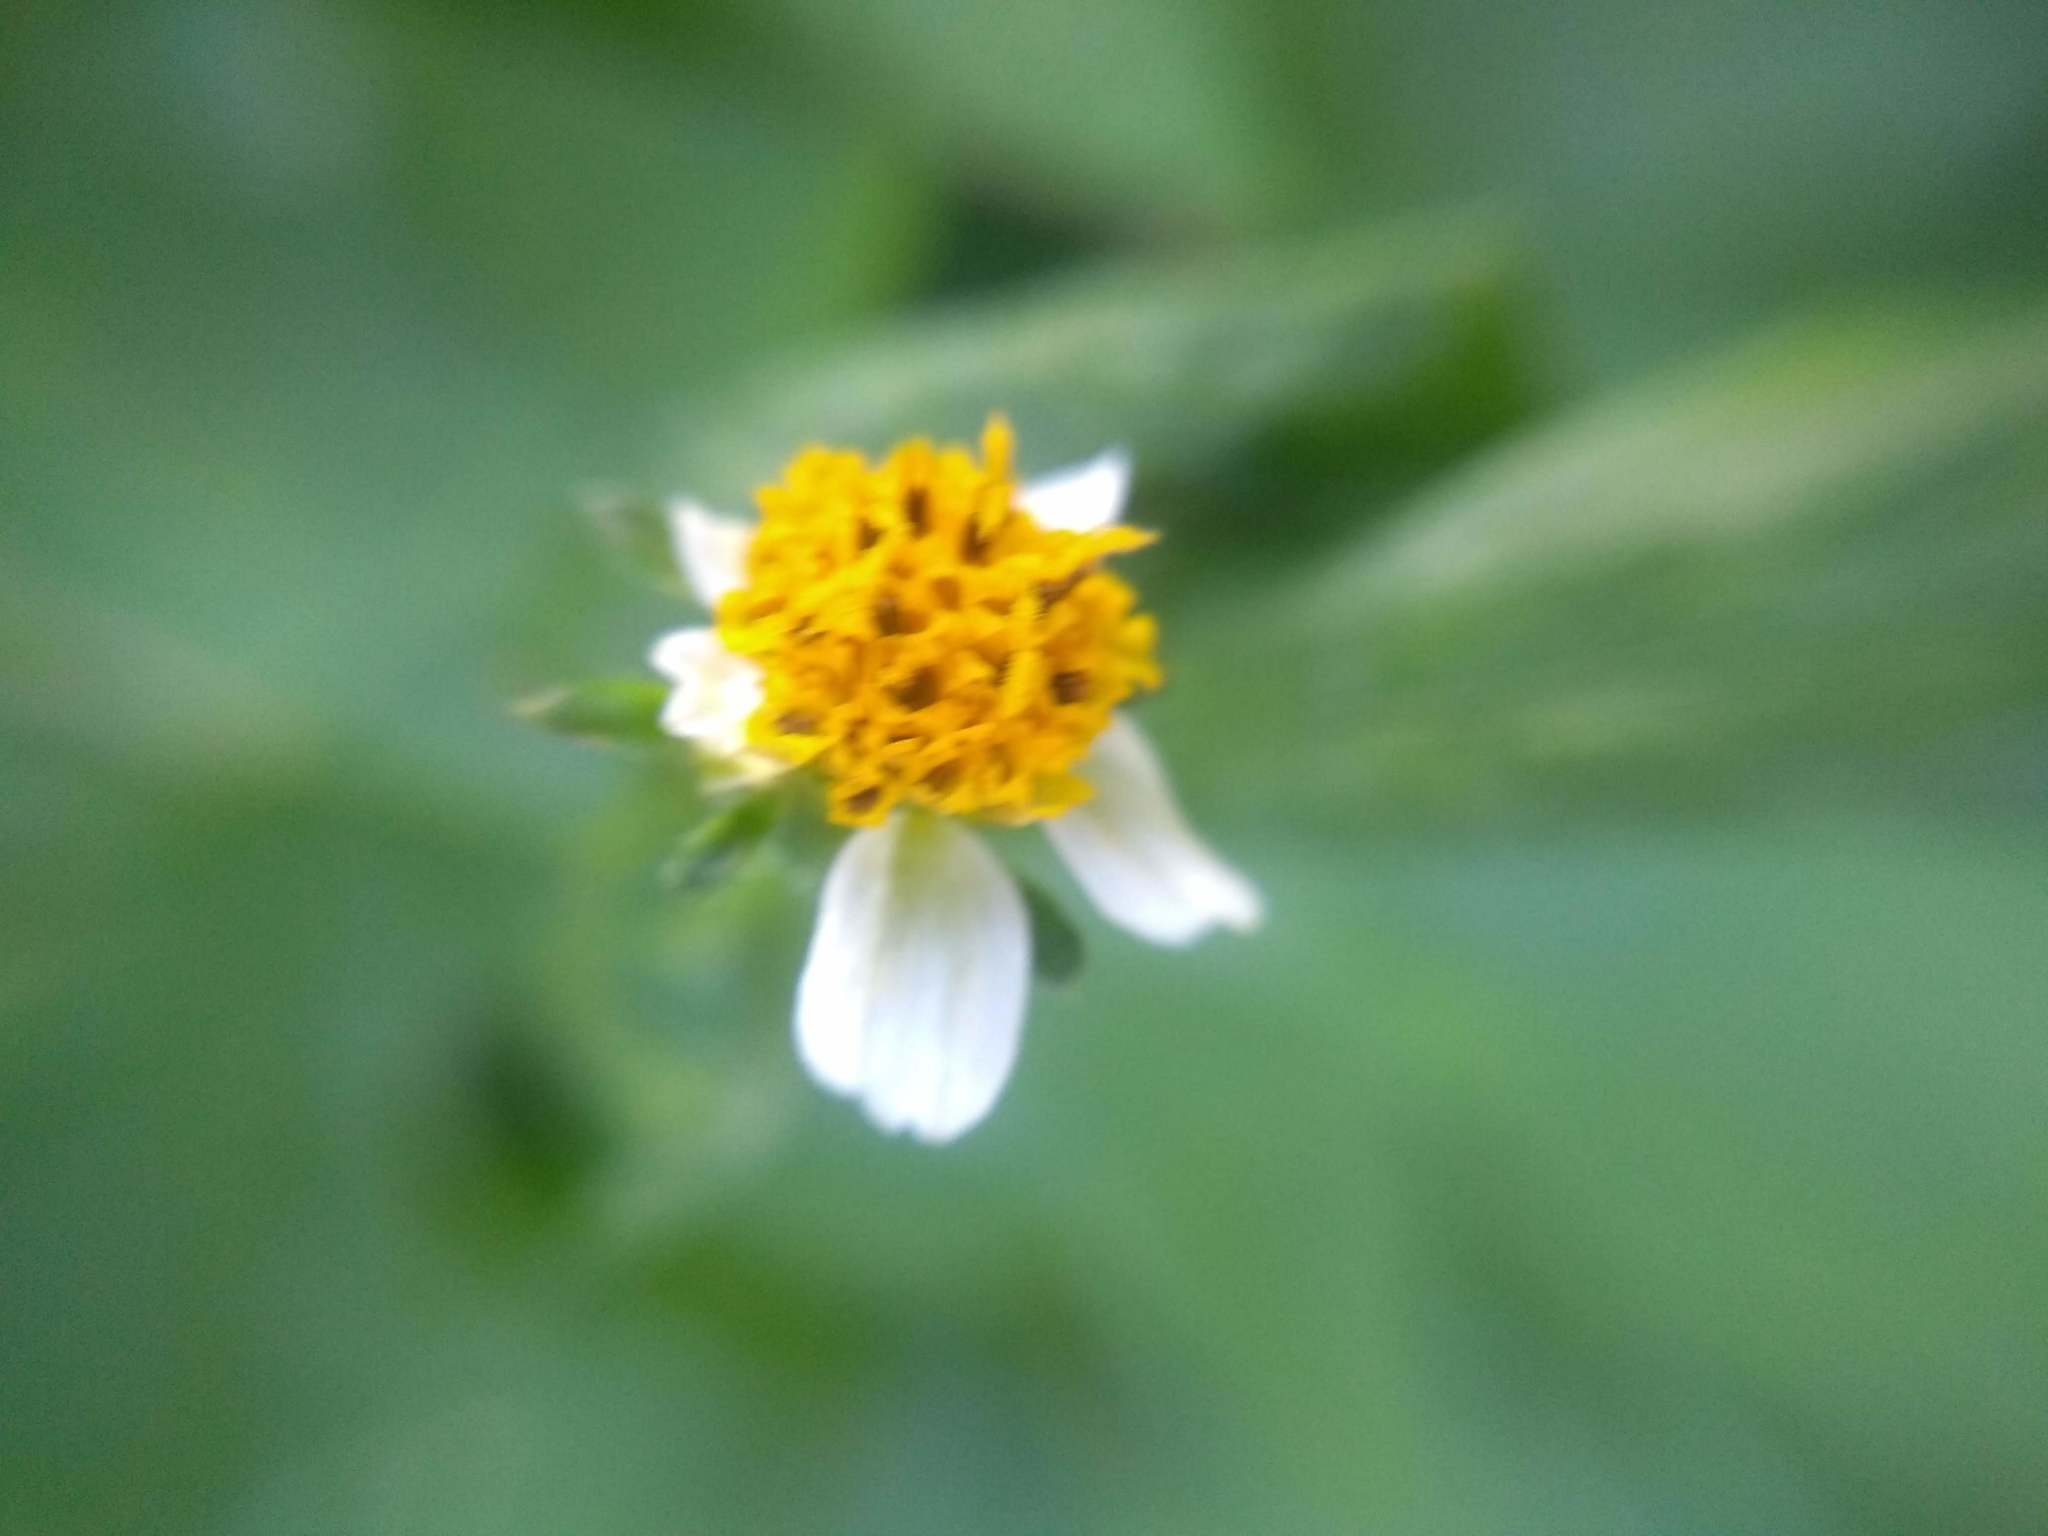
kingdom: Plantae
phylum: Tracheophyta
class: Magnoliopsida
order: Asterales
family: Asteraceae
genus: Bidens
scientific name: Bidens pilosa
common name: Black-jack
